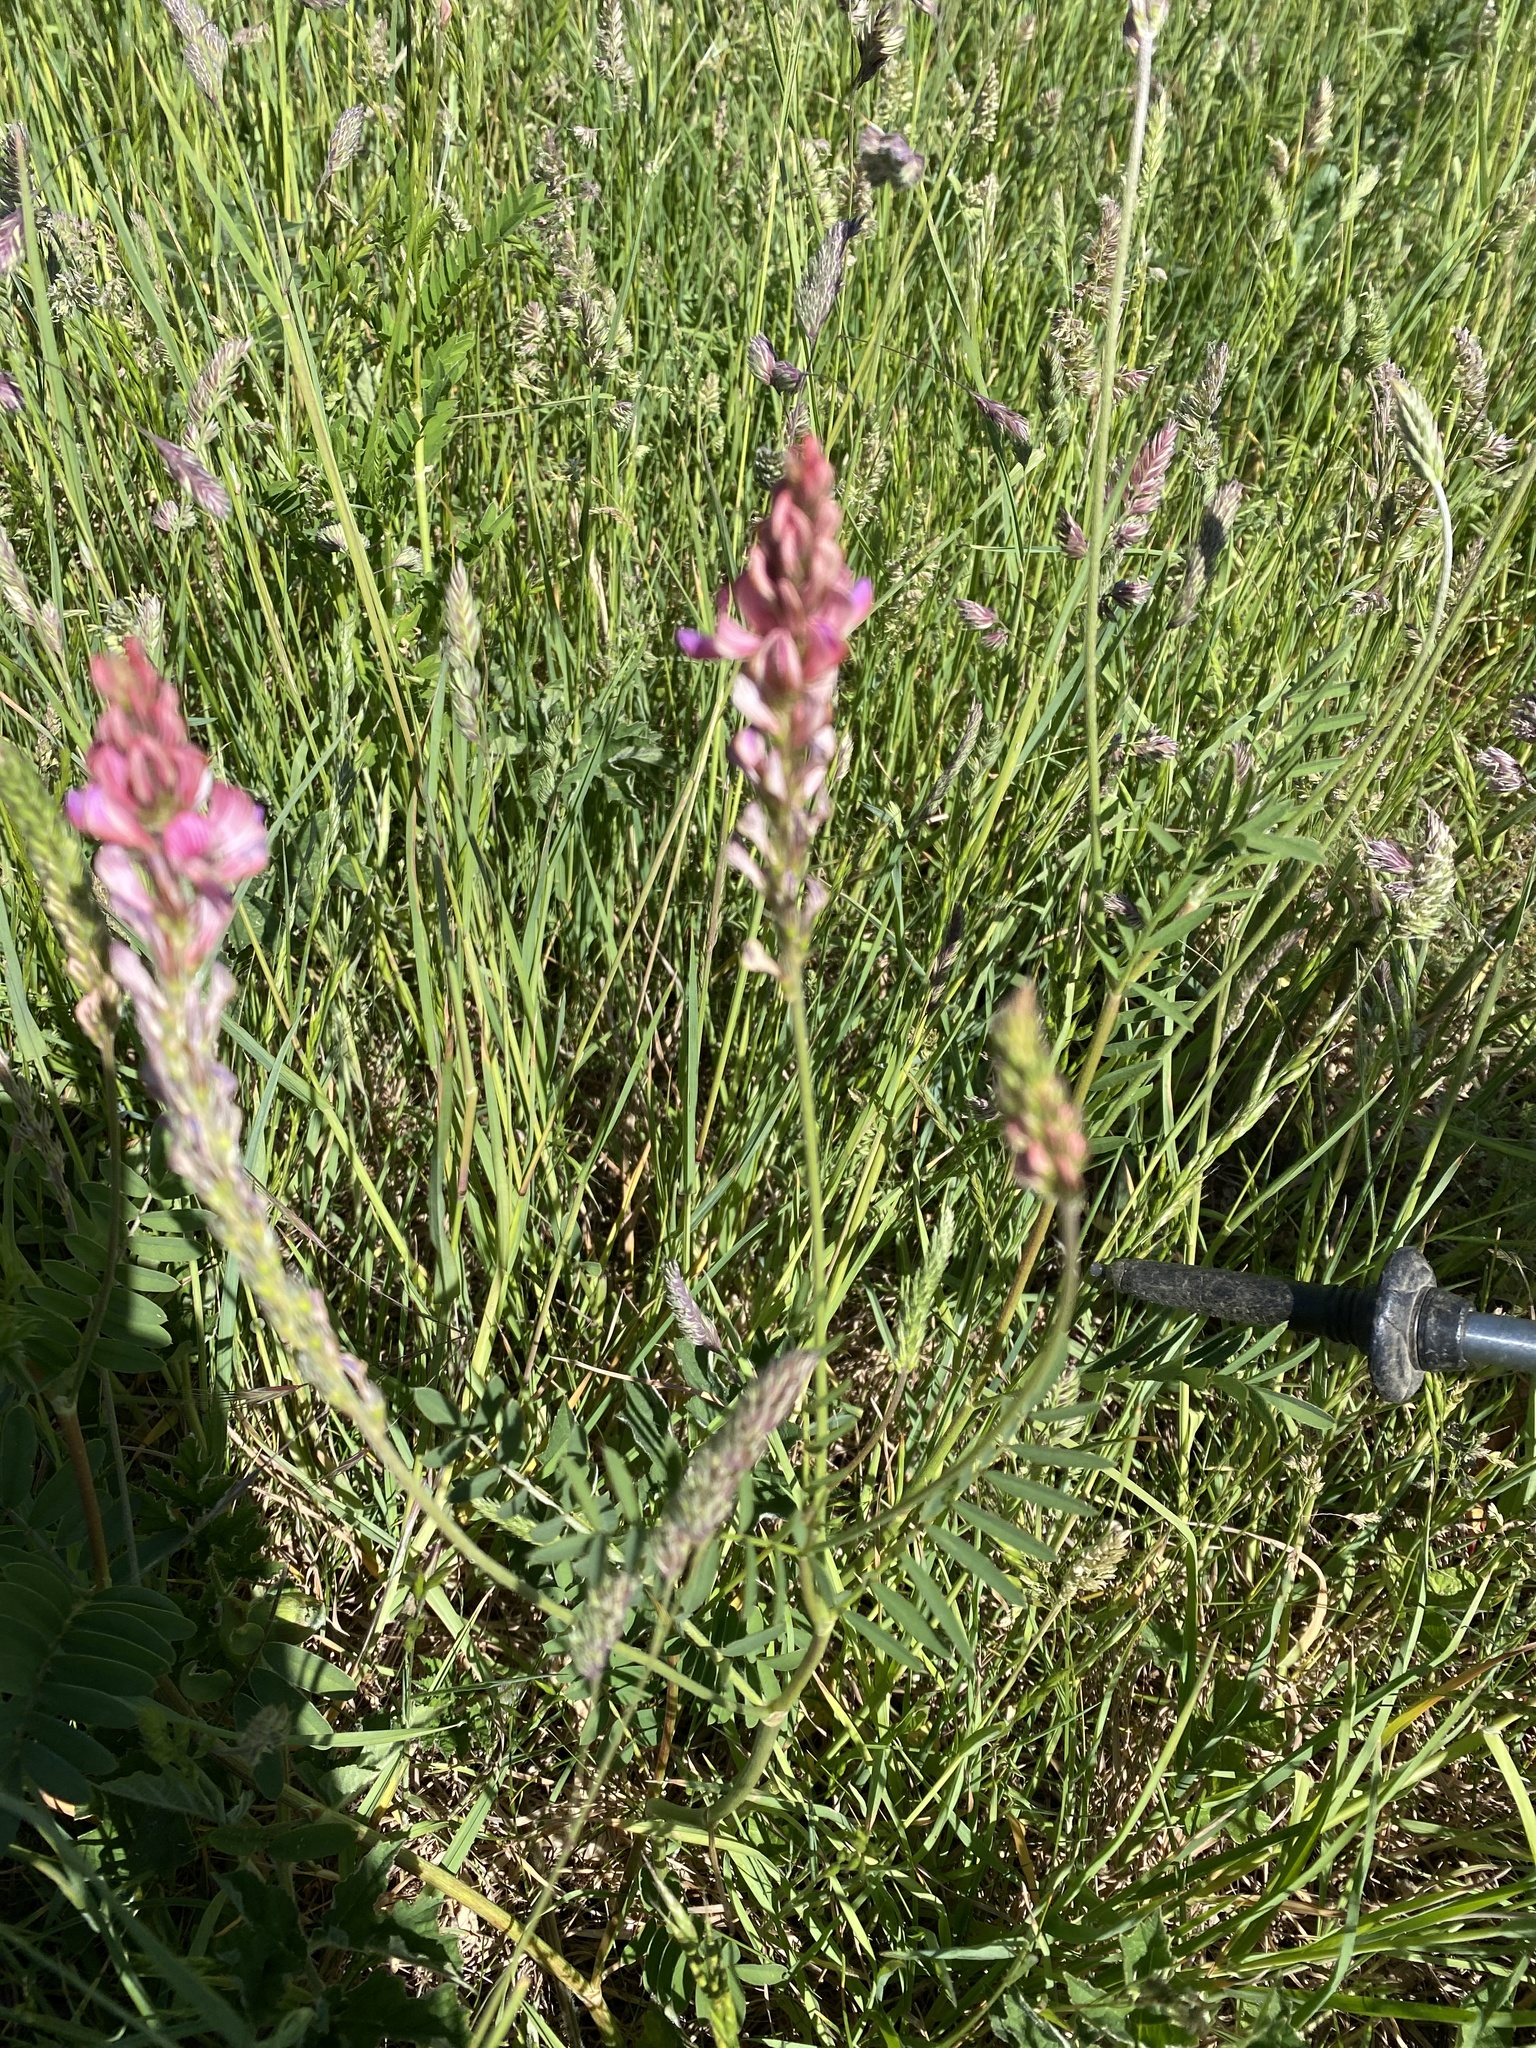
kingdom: Plantae
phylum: Tracheophyta
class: Magnoliopsida
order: Fabales
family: Fabaceae
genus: Onobrychis
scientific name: Onobrychis viciifolia
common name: Sainfoin
